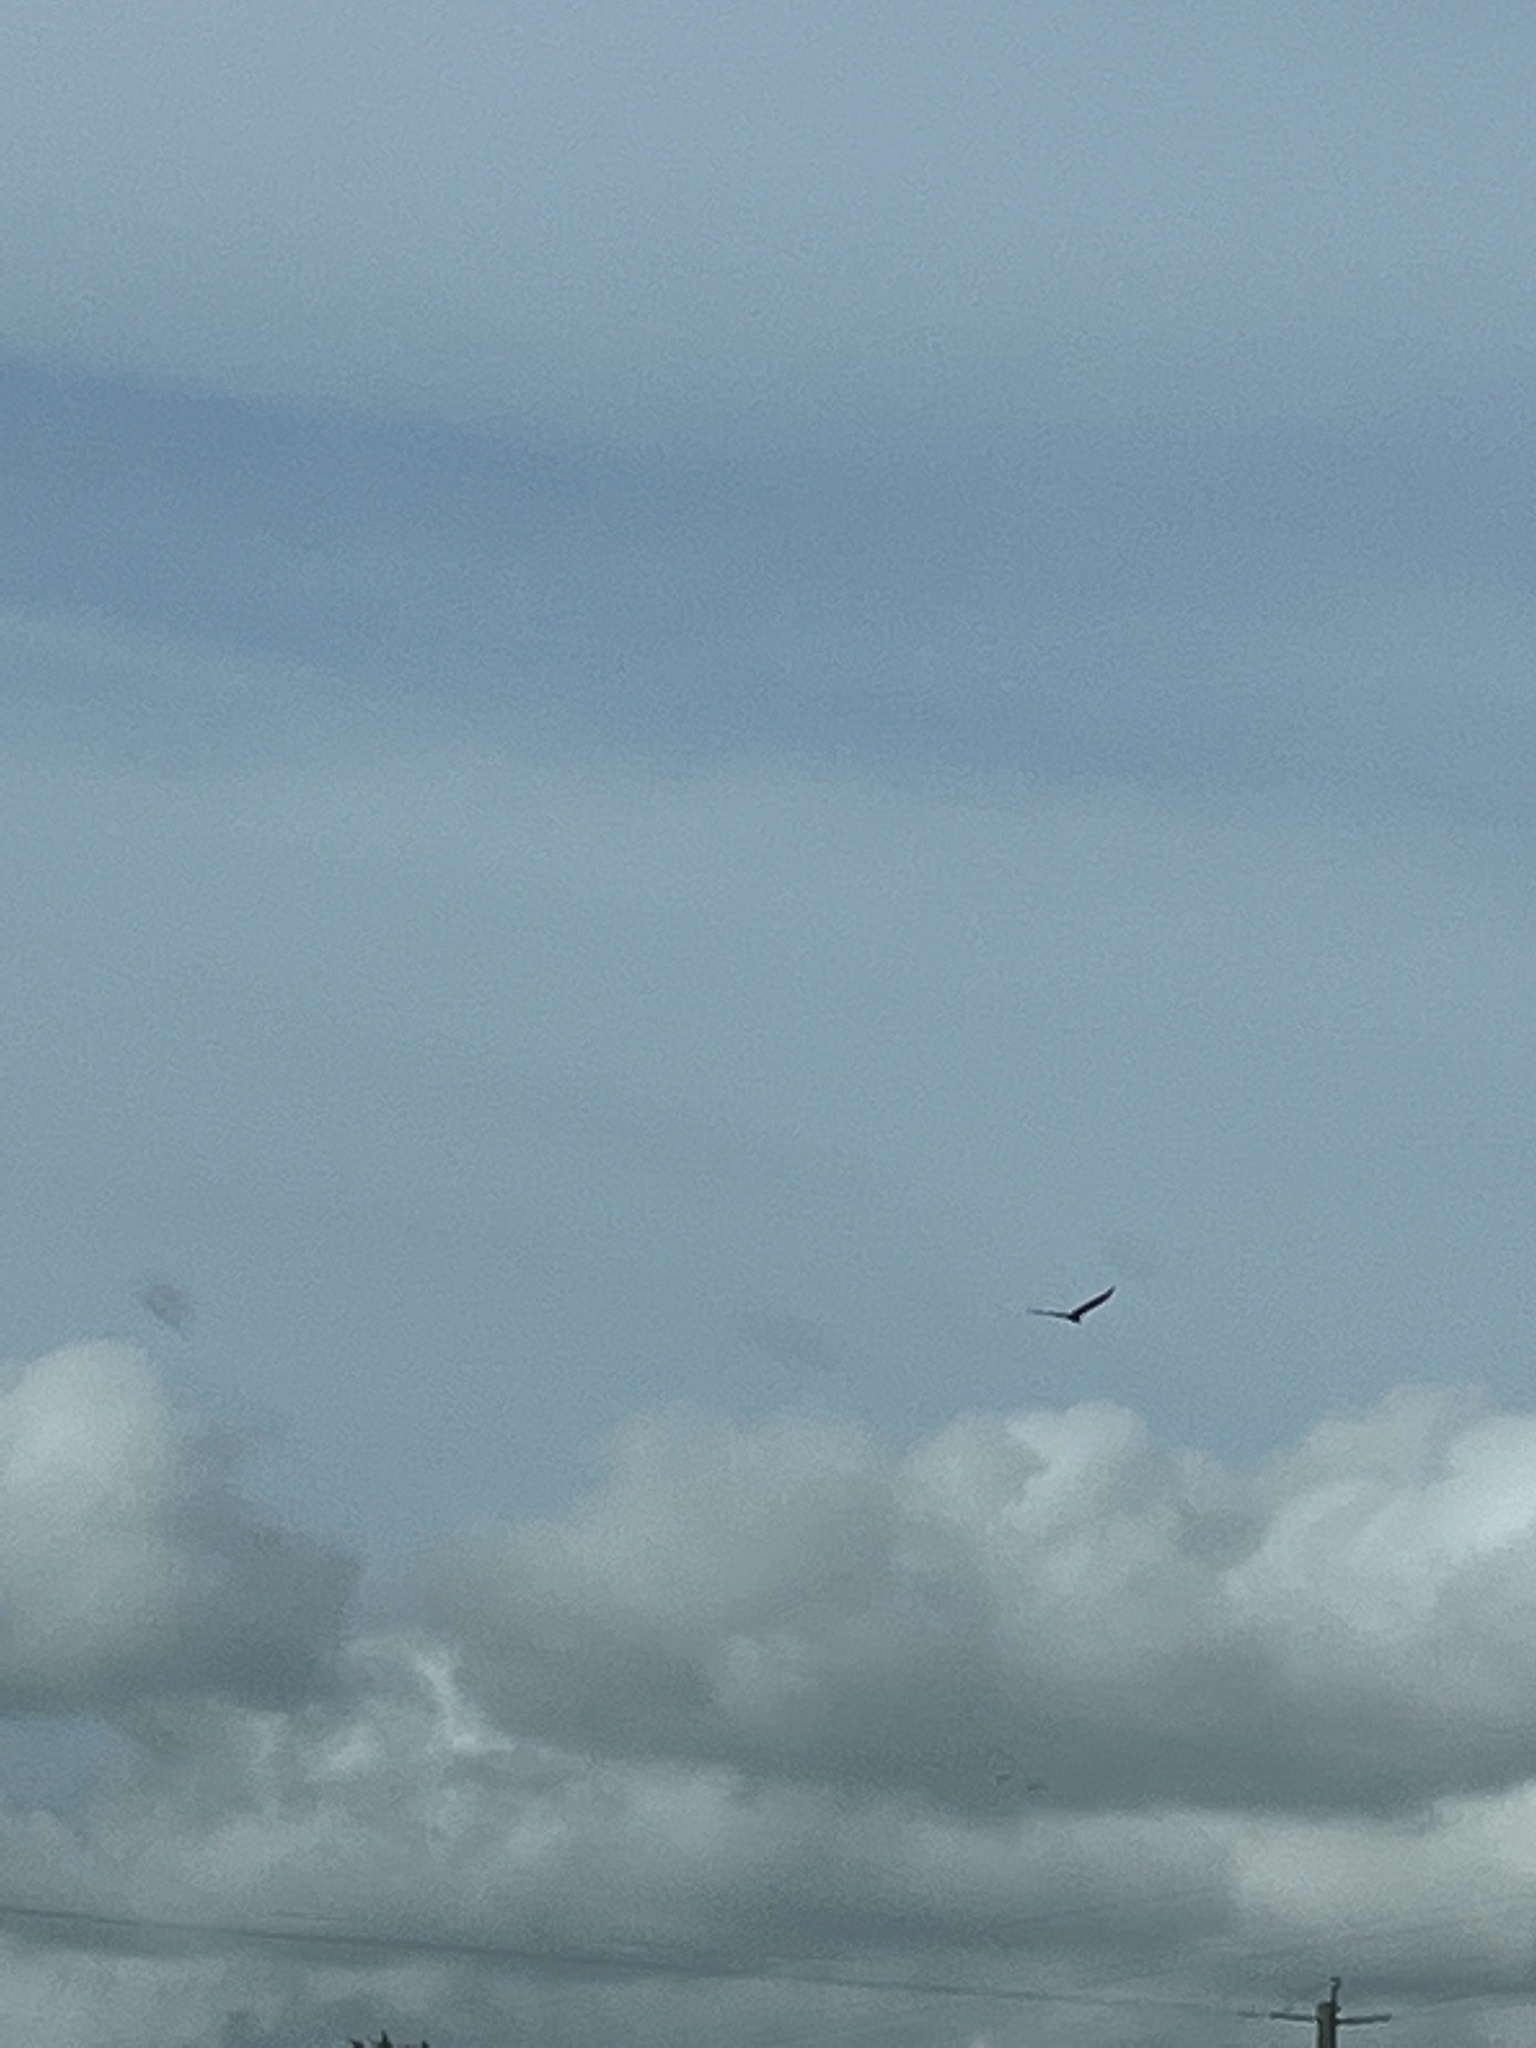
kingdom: Animalia
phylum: Chordata
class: Aves
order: Accipitriformes
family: Cathartidae
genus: Cathartes
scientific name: Cathartes aura
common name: Turkey vulture
